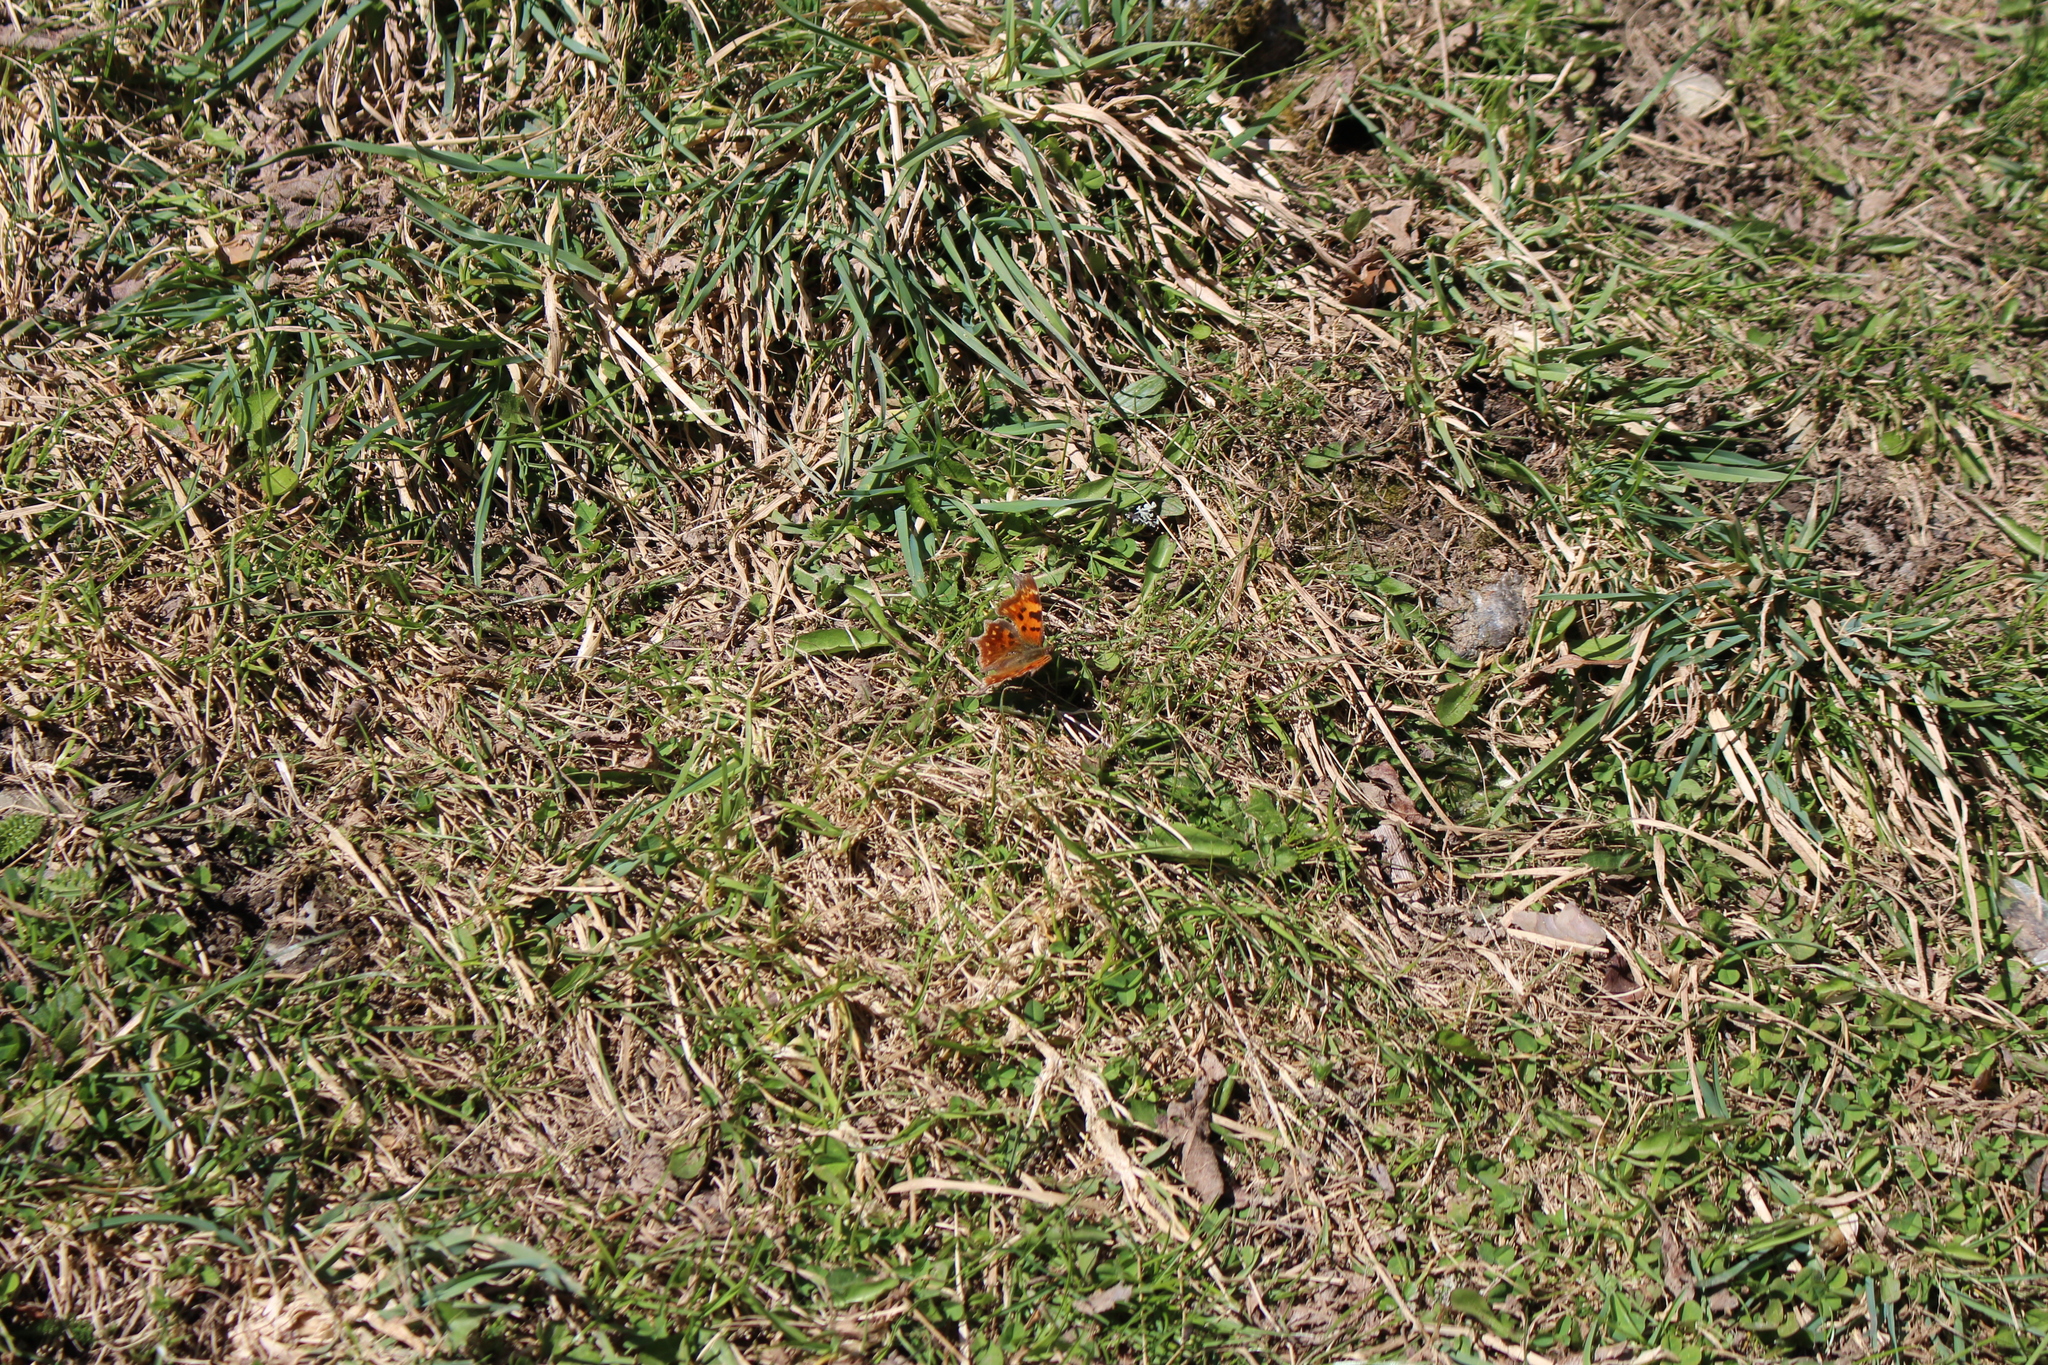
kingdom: Animalia
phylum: Arthropoda
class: Insecta
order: Lepidoptera
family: Nymphalidae
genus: Polygonia
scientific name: Polygonia c-album
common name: Comma
